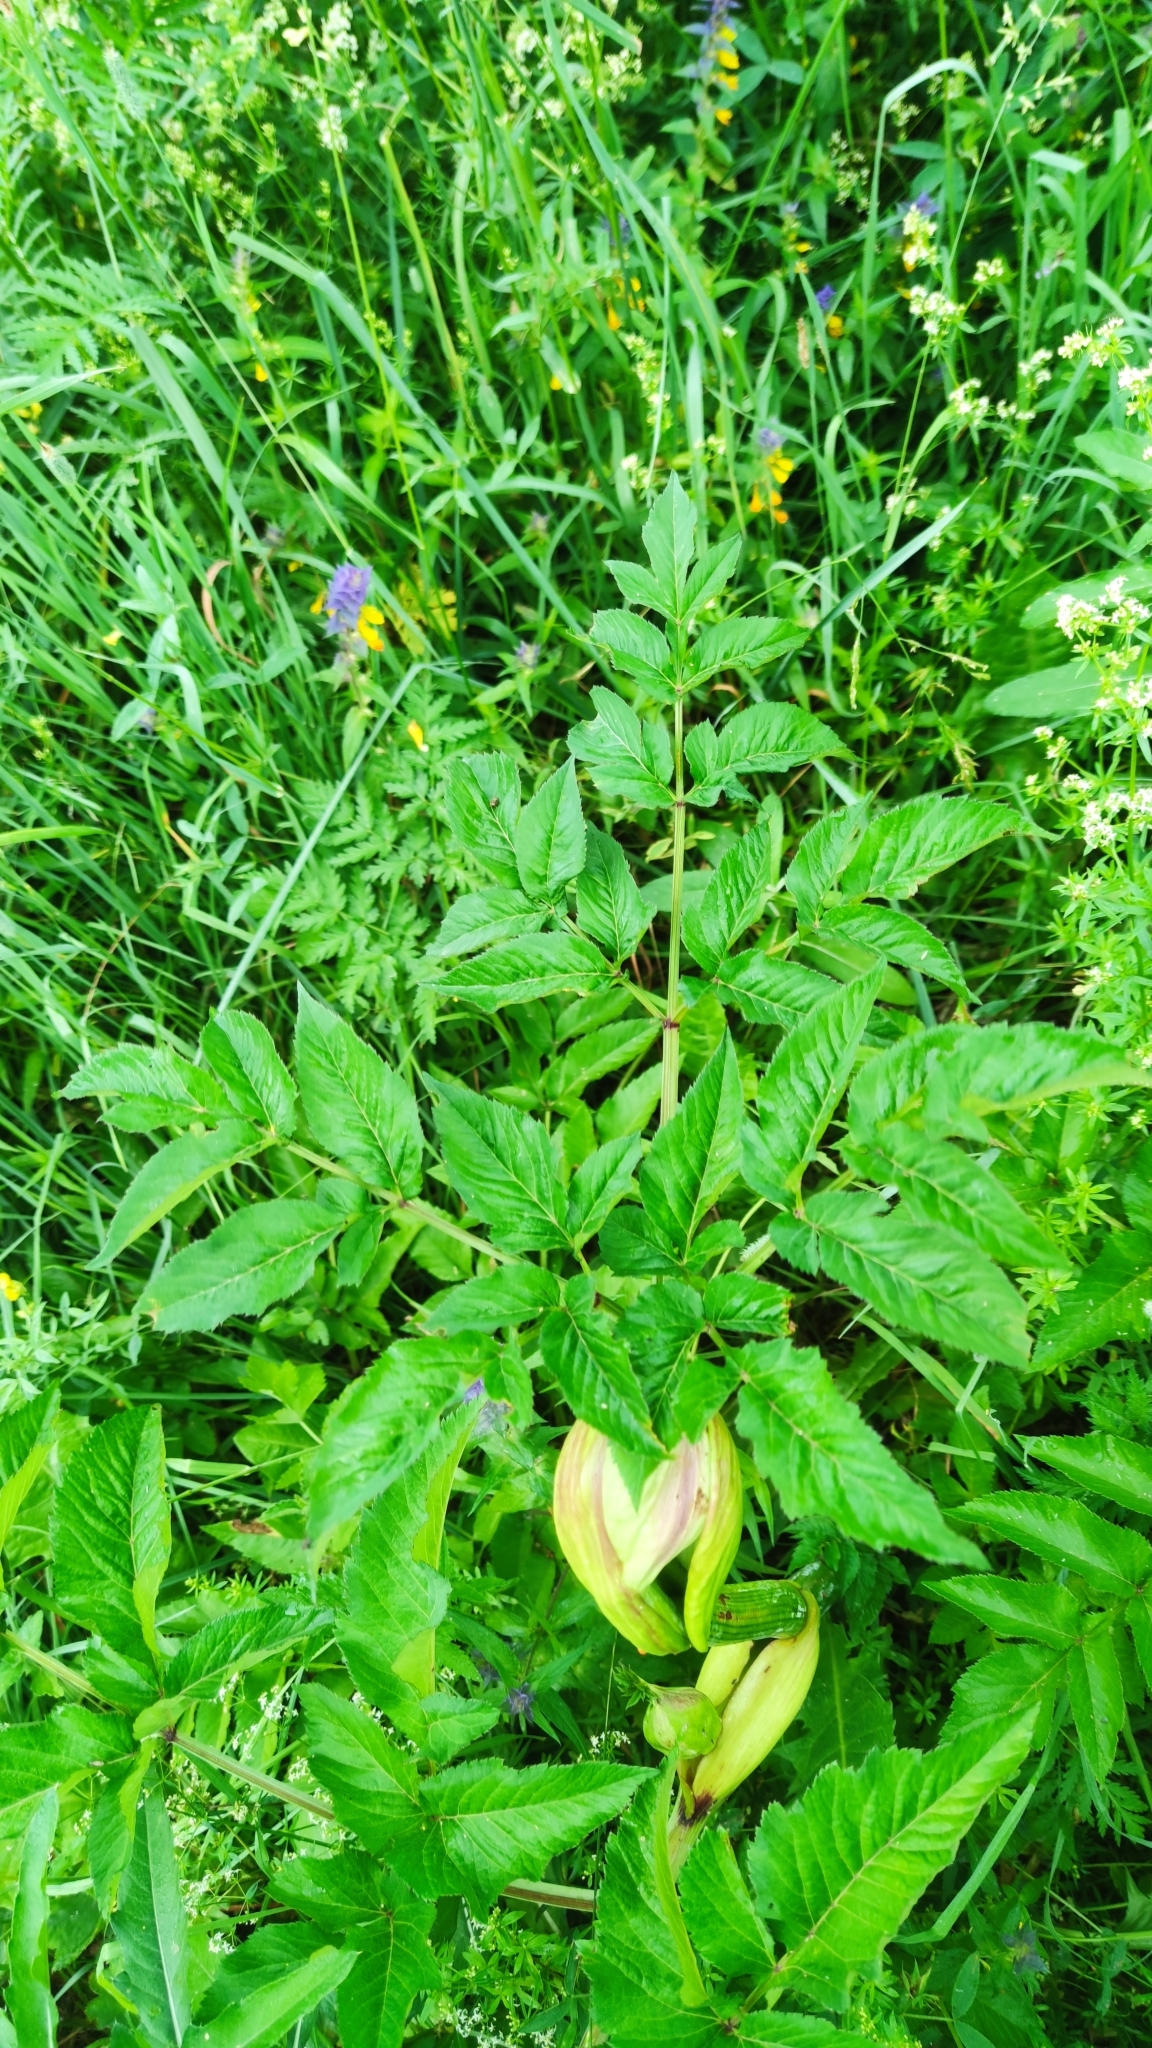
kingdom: Plantae
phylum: Tracheophyta
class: Magnoliopsida
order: Apiales
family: Apiaceae
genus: Angelica
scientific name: Angelica sylvestris
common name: Wild angelica
